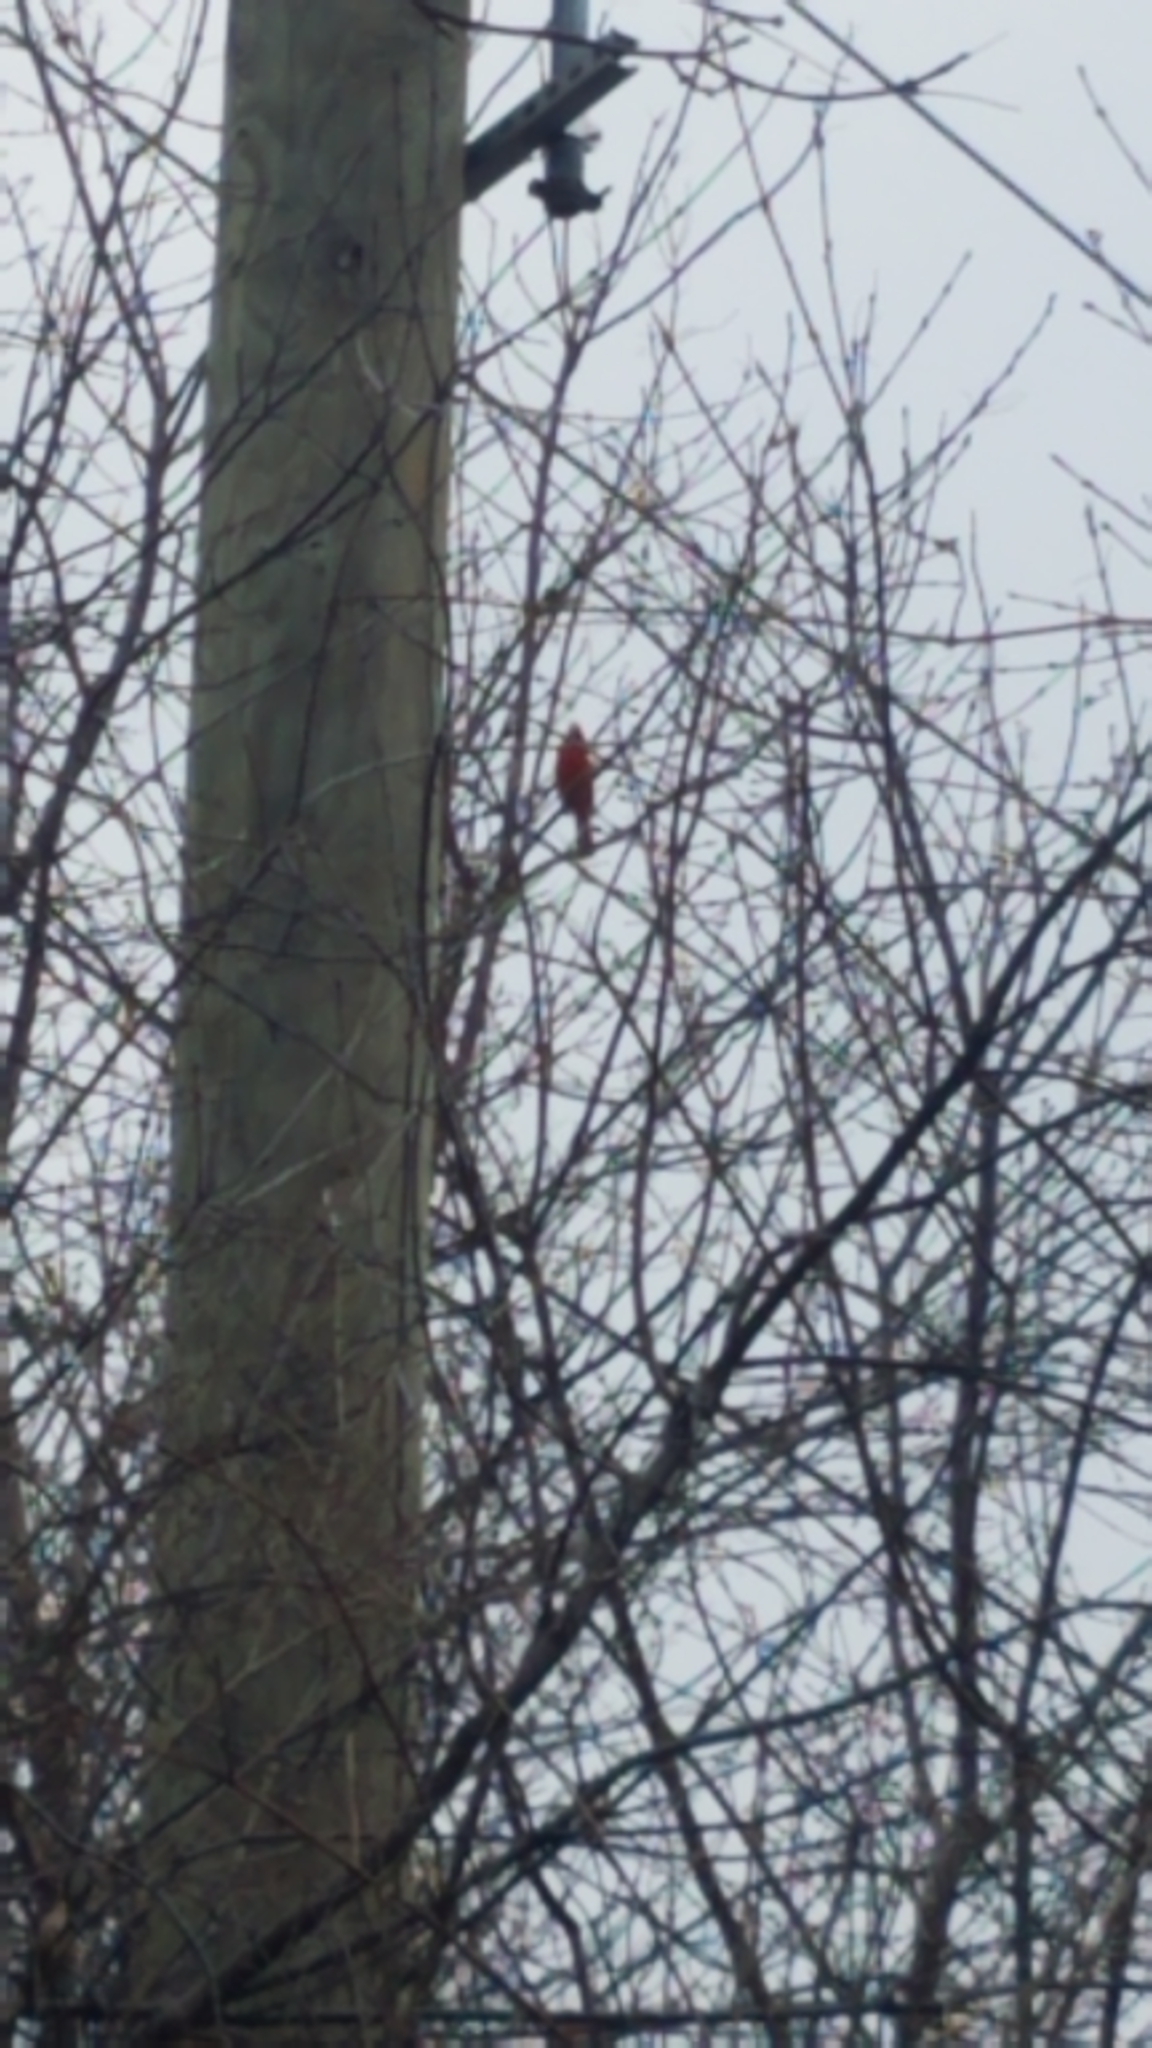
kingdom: Animalia
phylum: Chordata
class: Aves
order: Passeriformes
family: Cardinalidae
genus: Cardinalis
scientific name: Cardinalis cardinalis
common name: Northern cardinal
